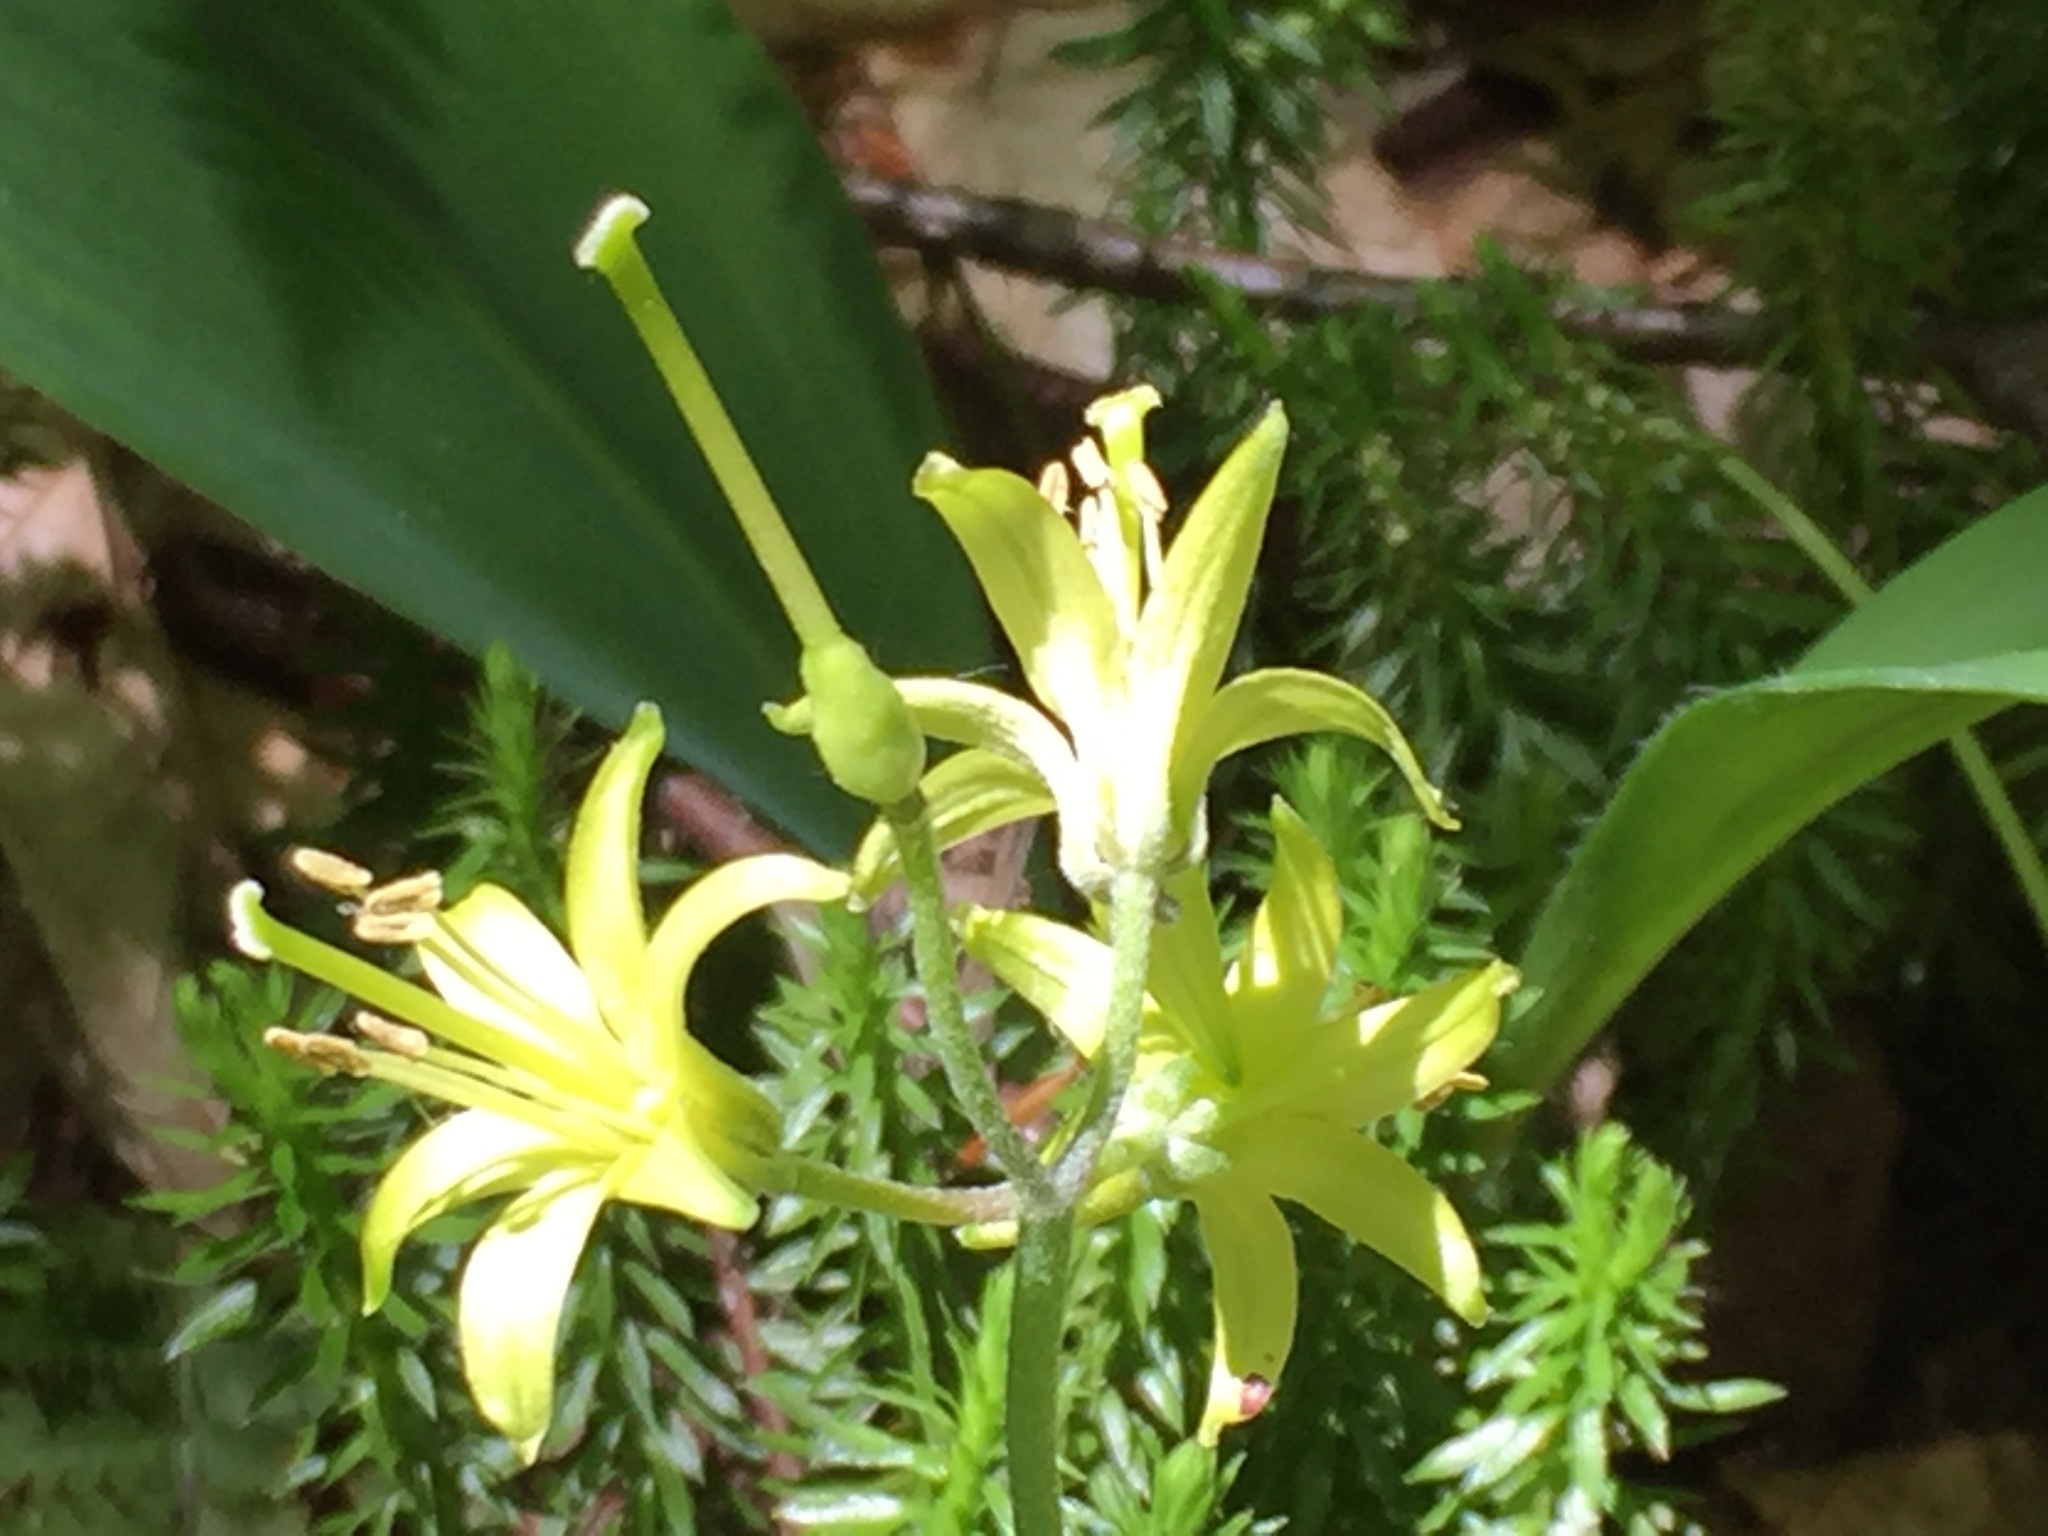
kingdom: Plantae
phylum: Tracheophyta
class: Liliopsida
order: Liliales
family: Liliaceae
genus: Clintonia
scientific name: Clintonia borealis
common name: Yellow clintonia
